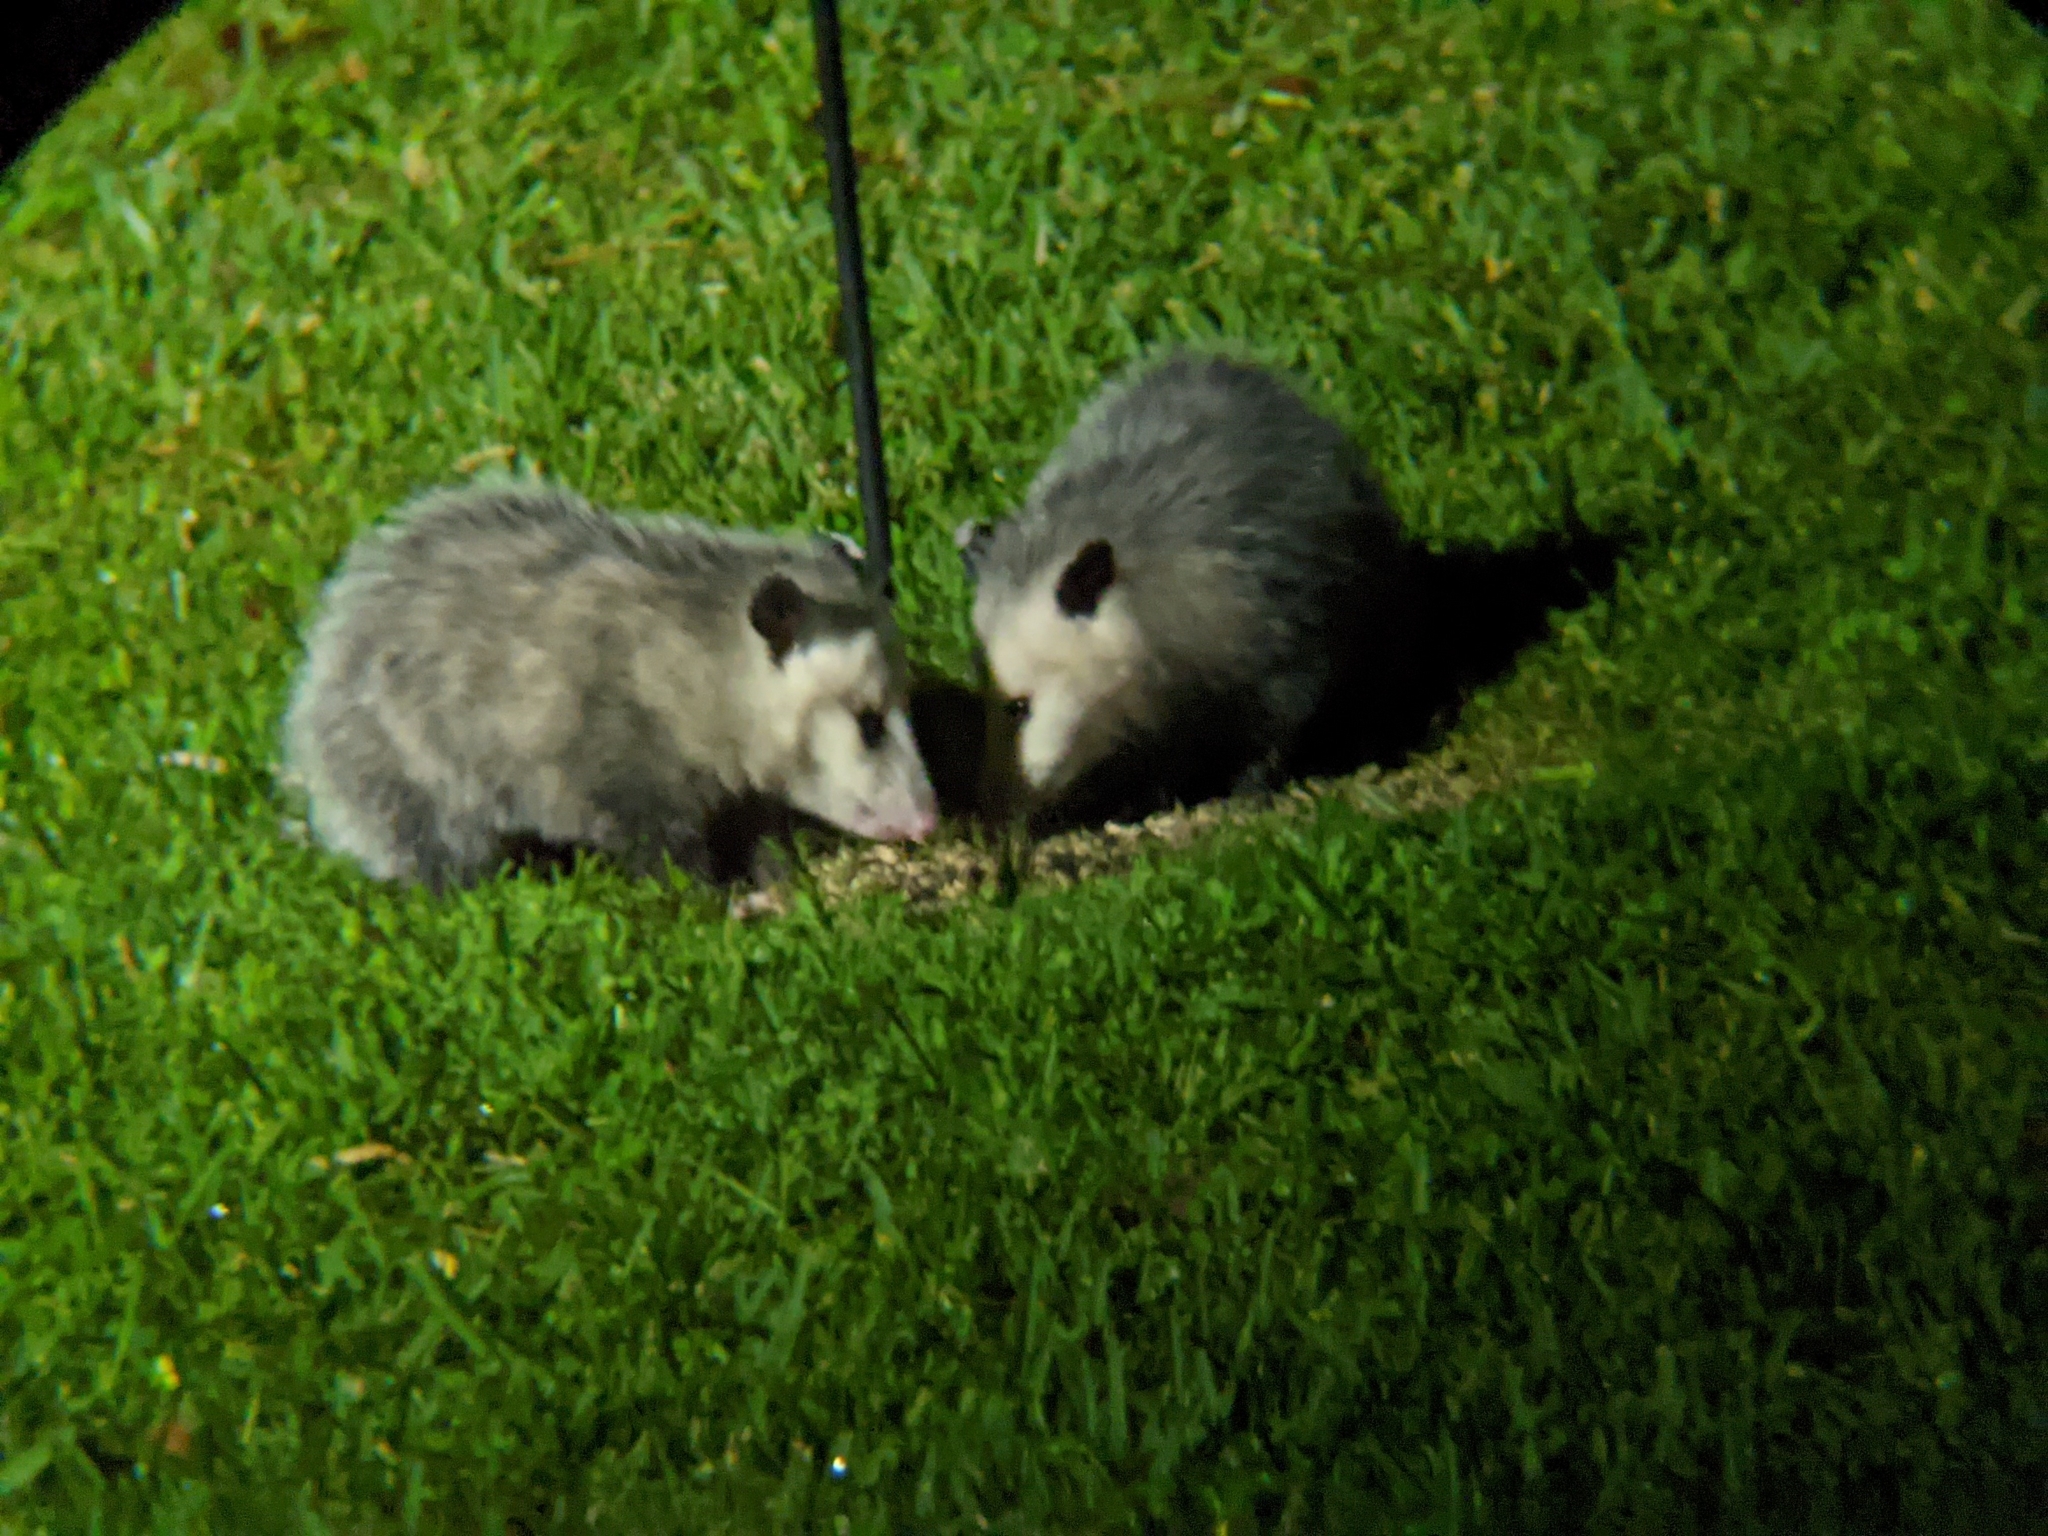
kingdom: Animalia
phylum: Chordata
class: Mammalia
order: Didelphimorphia
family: Didelphidae
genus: Didelphis
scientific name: Didelphis virginiana
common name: Virginia opossum
